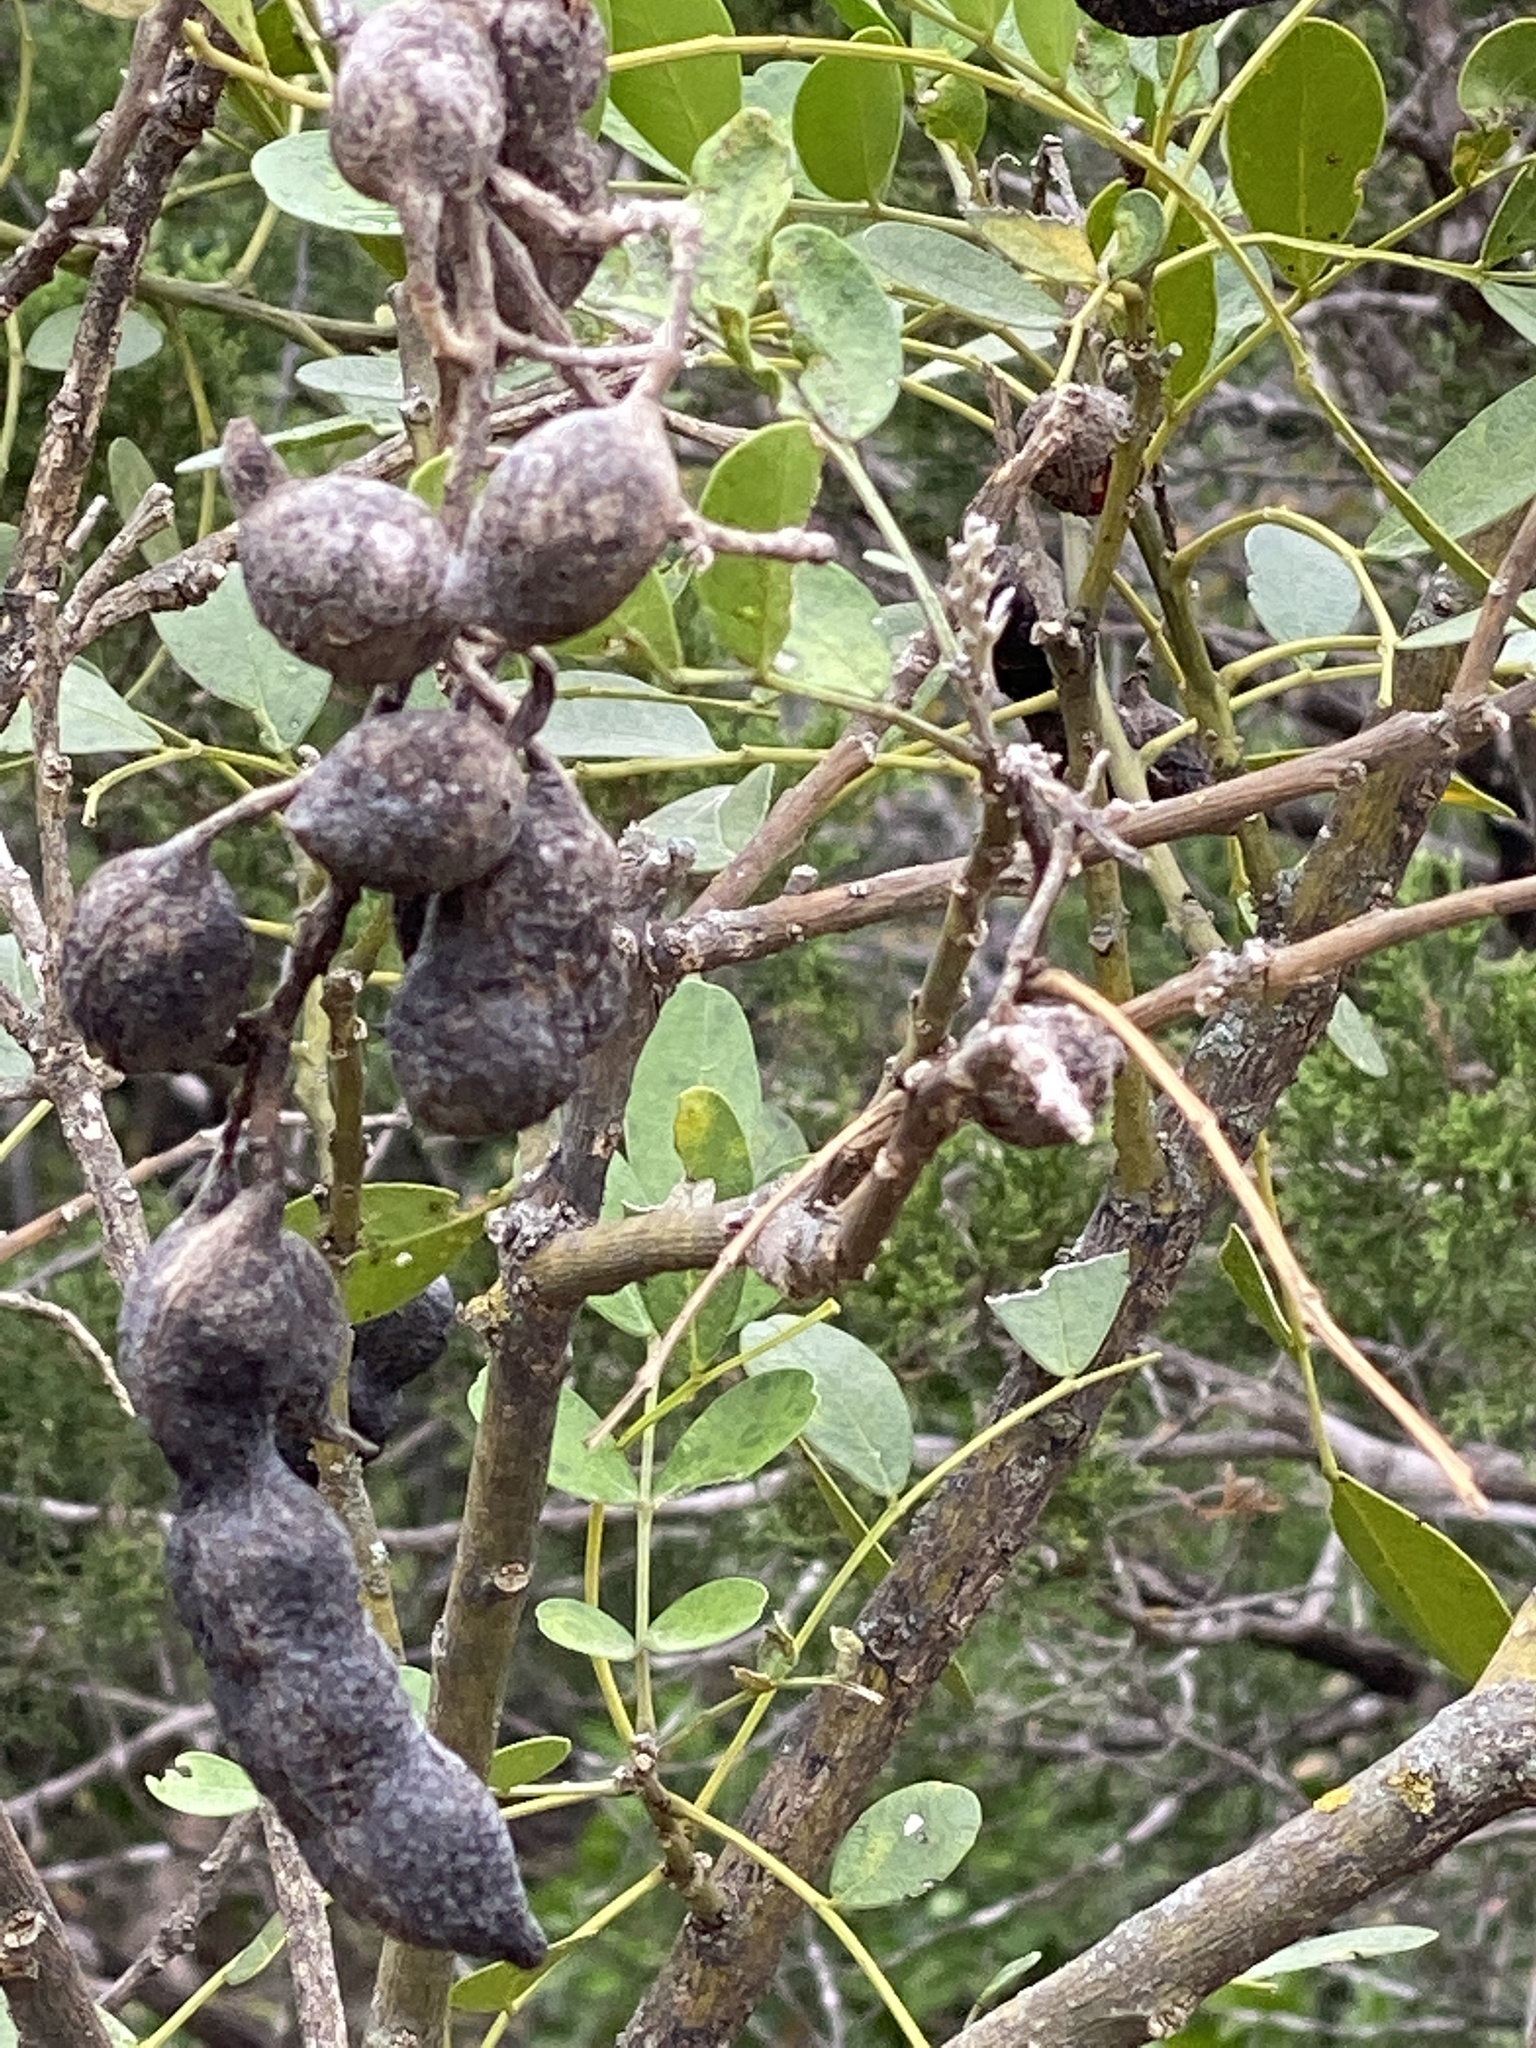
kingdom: Plantae
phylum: Tracheophyta
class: Magnoliopsida
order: Fabales
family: Fabaceae
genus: Dermatophyllum
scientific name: Dermatophyllum secundiflorum
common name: Texas-mountain-laurel
